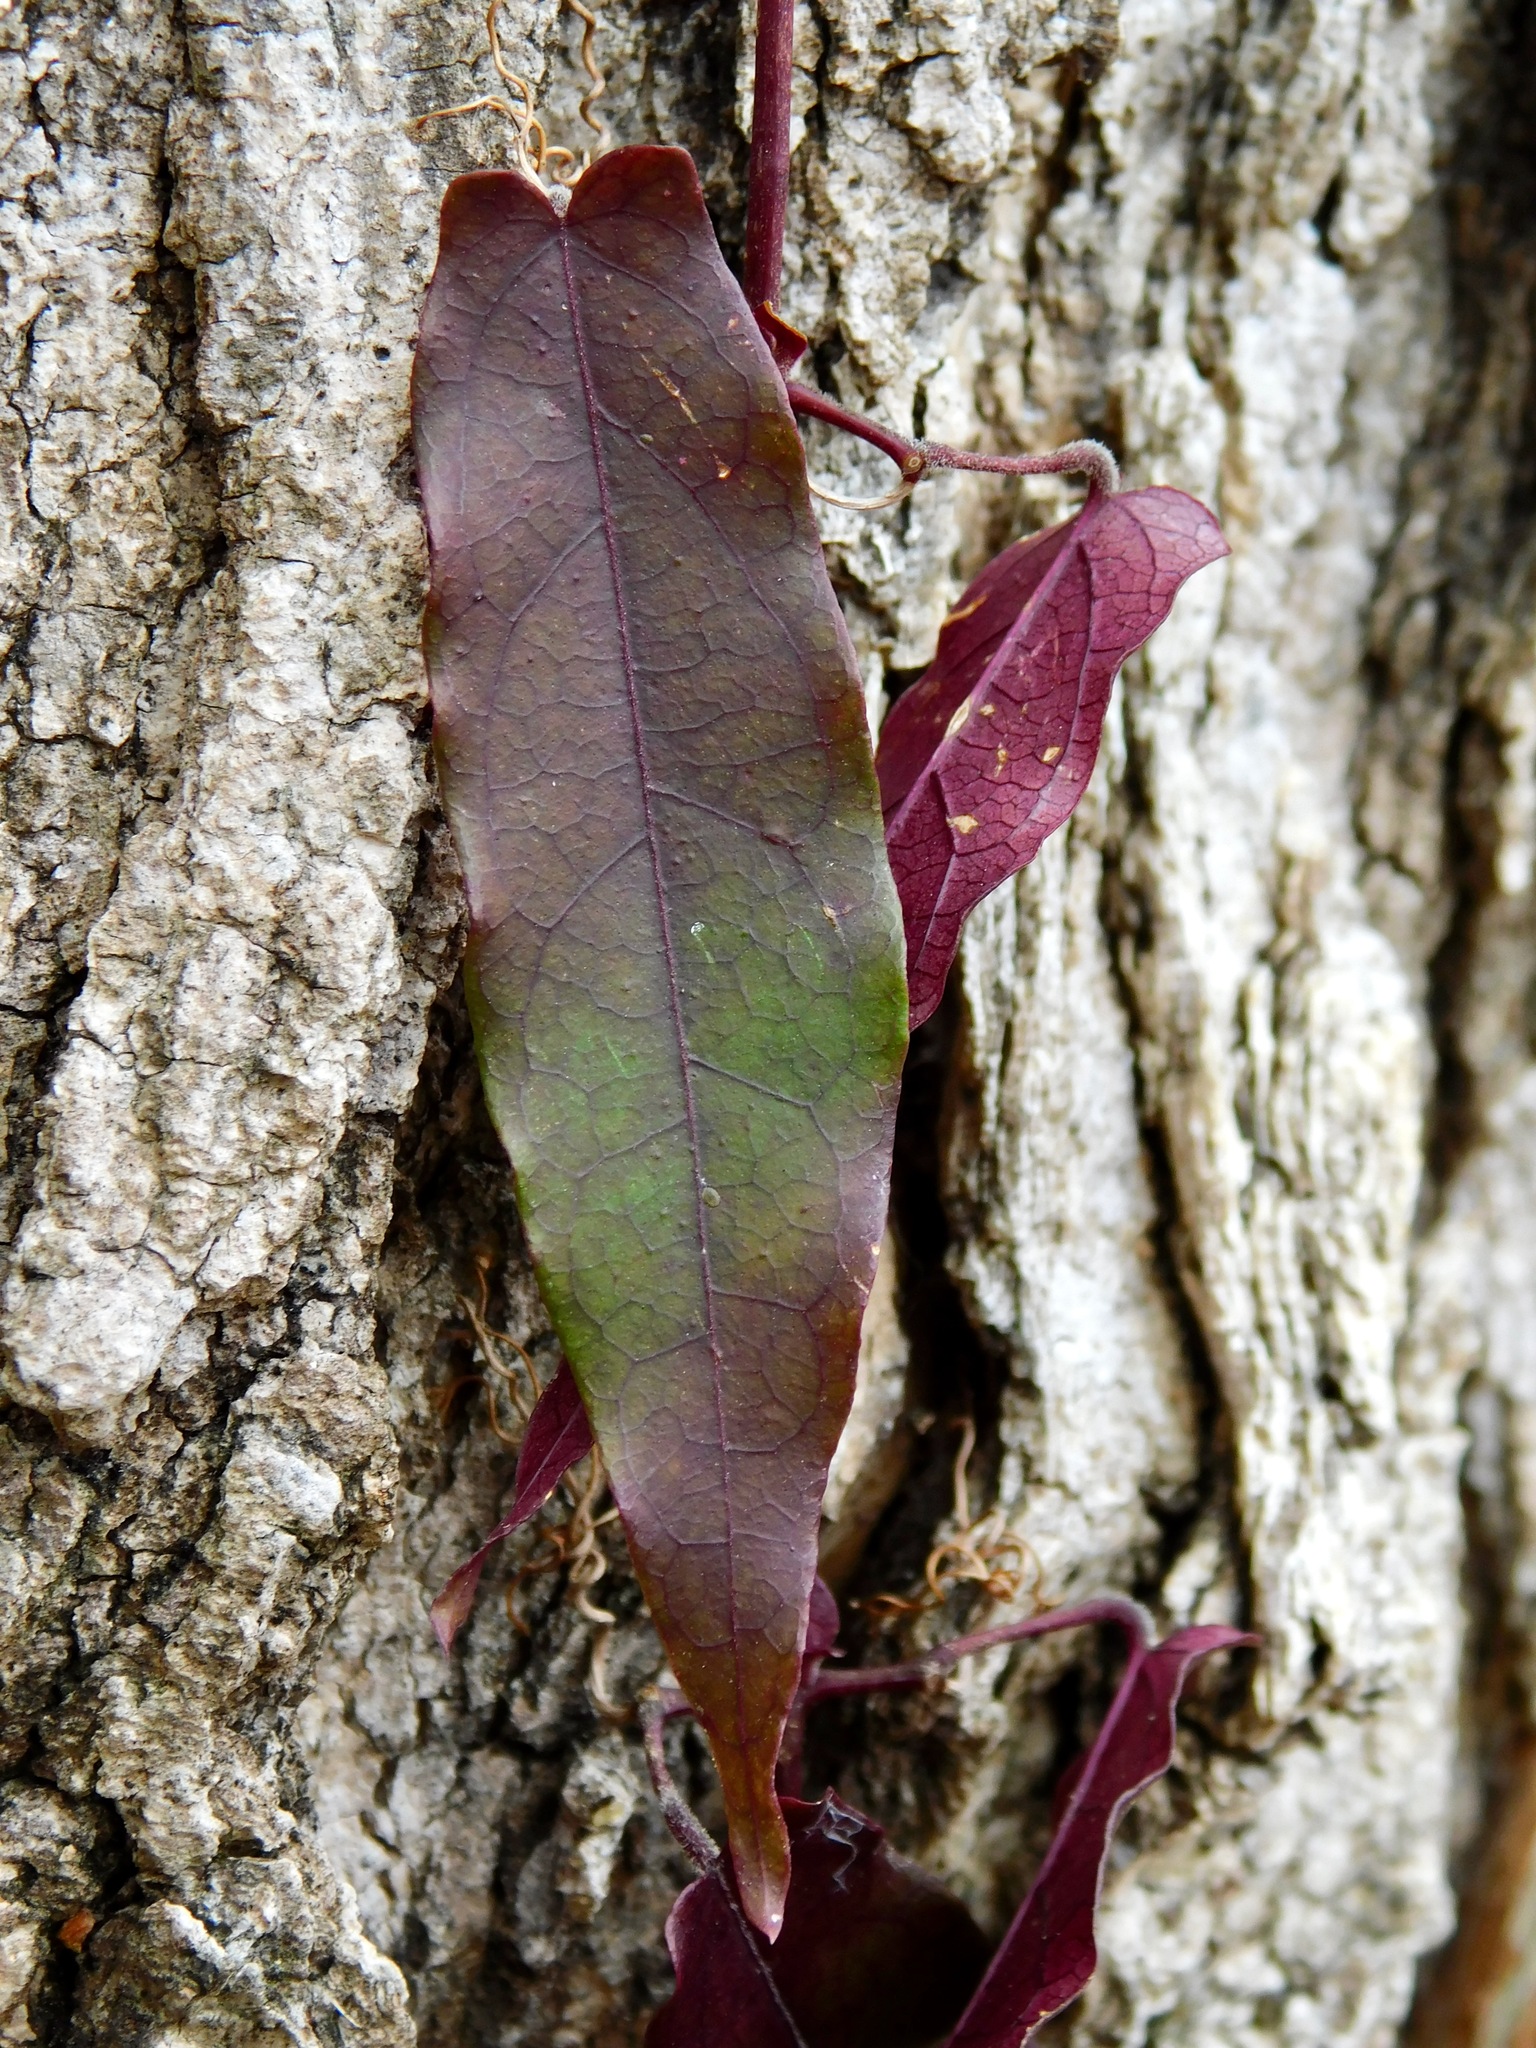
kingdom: Plantae
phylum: Tracheophyta
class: Magnoliopsida
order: Lamiales
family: Bignoniaceae
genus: Bignonia
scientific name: Bignonia capreolata
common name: Crossvine
